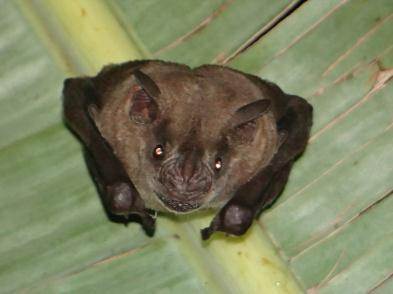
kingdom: Animalia
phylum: Chordata
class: Mammalia
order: Chiroptera
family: Phyllostomidae
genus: Artibeus
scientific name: Artibeus planirostris
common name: Flat-faced fruit-eating bat
